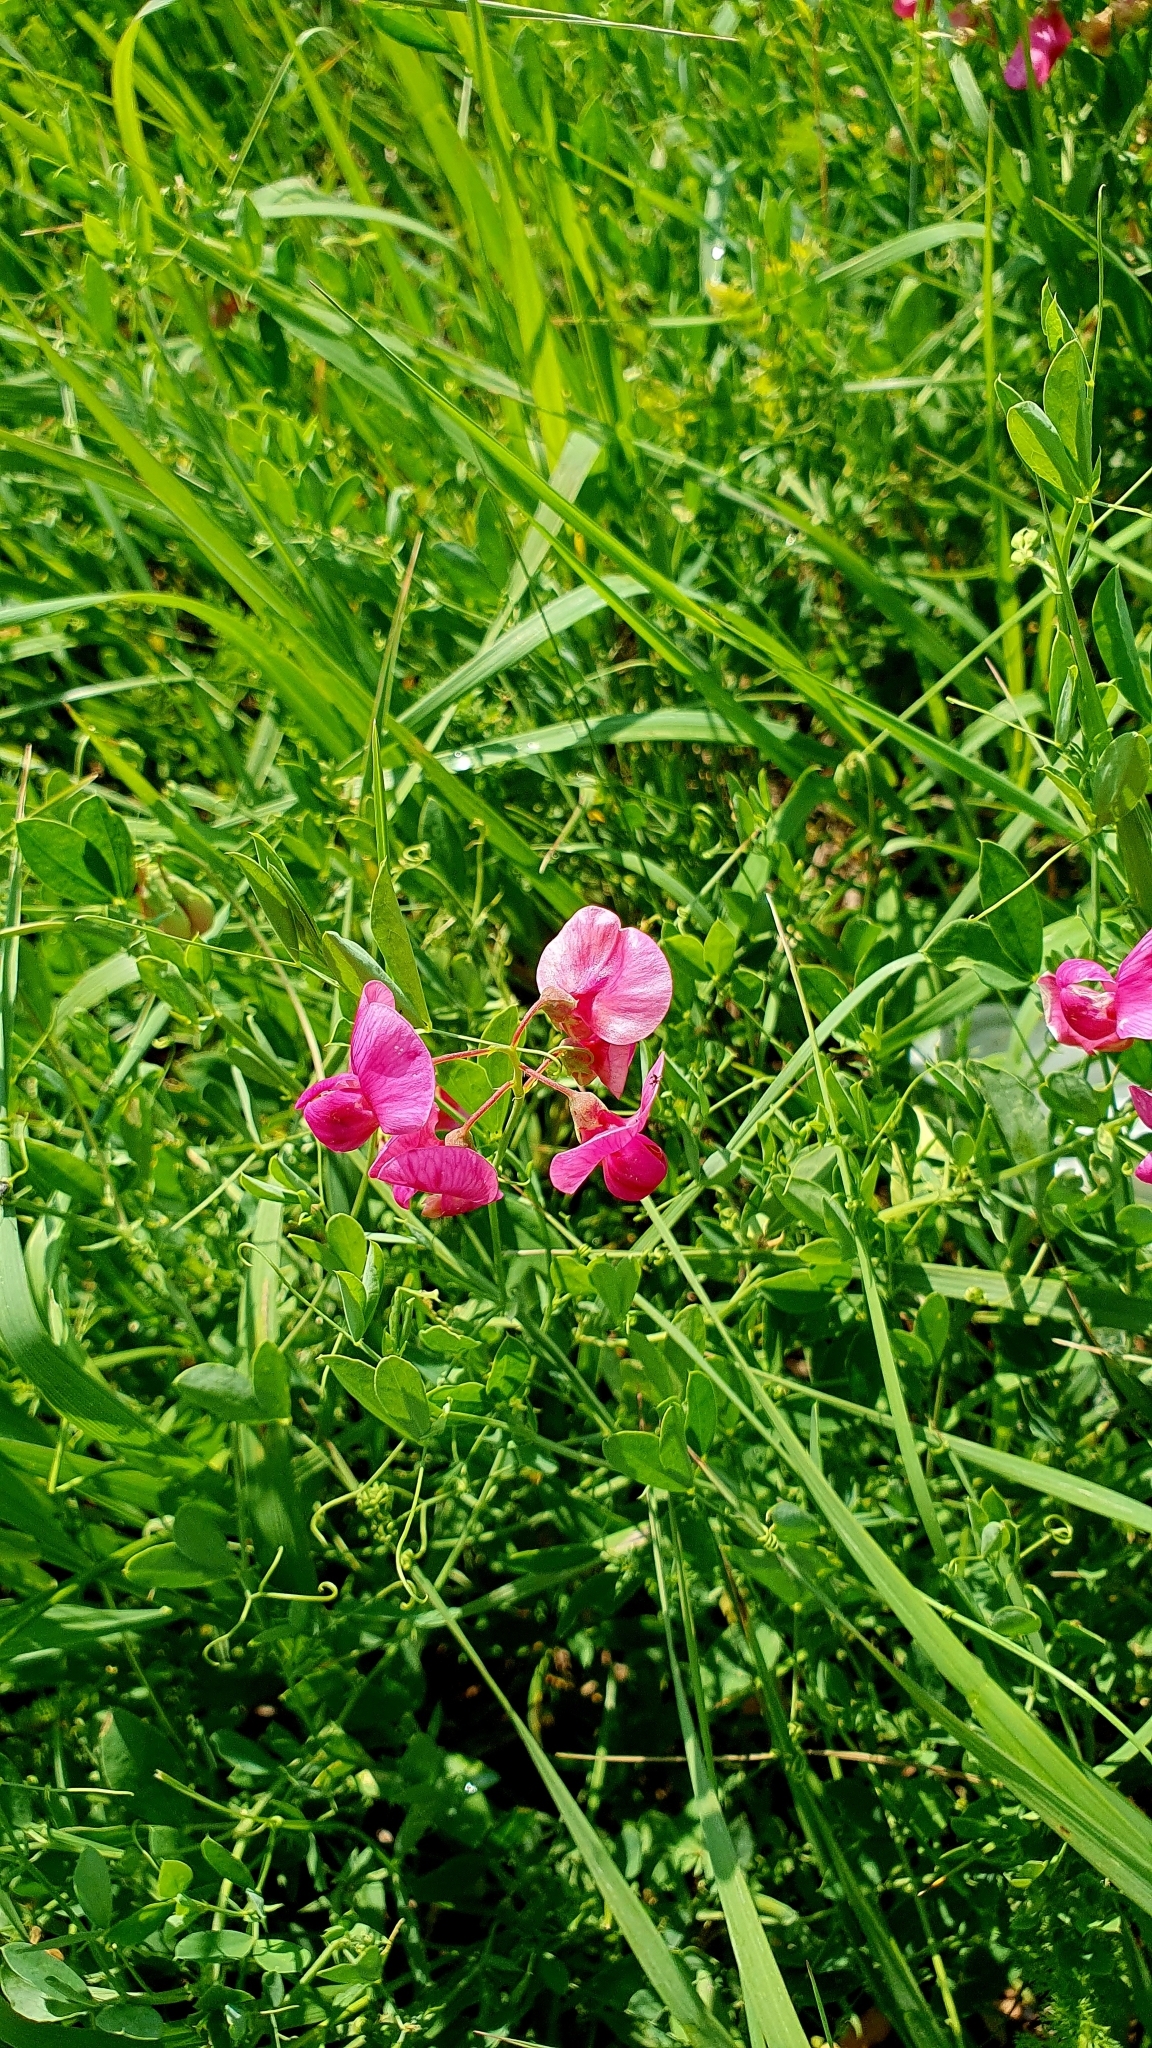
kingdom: Plantae
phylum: Tracheophyta
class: Magnoliopsida
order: Fabales
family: Fabaceae
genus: Lathyrus
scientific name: Lathyrus tuberosus
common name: Tuberous pea
